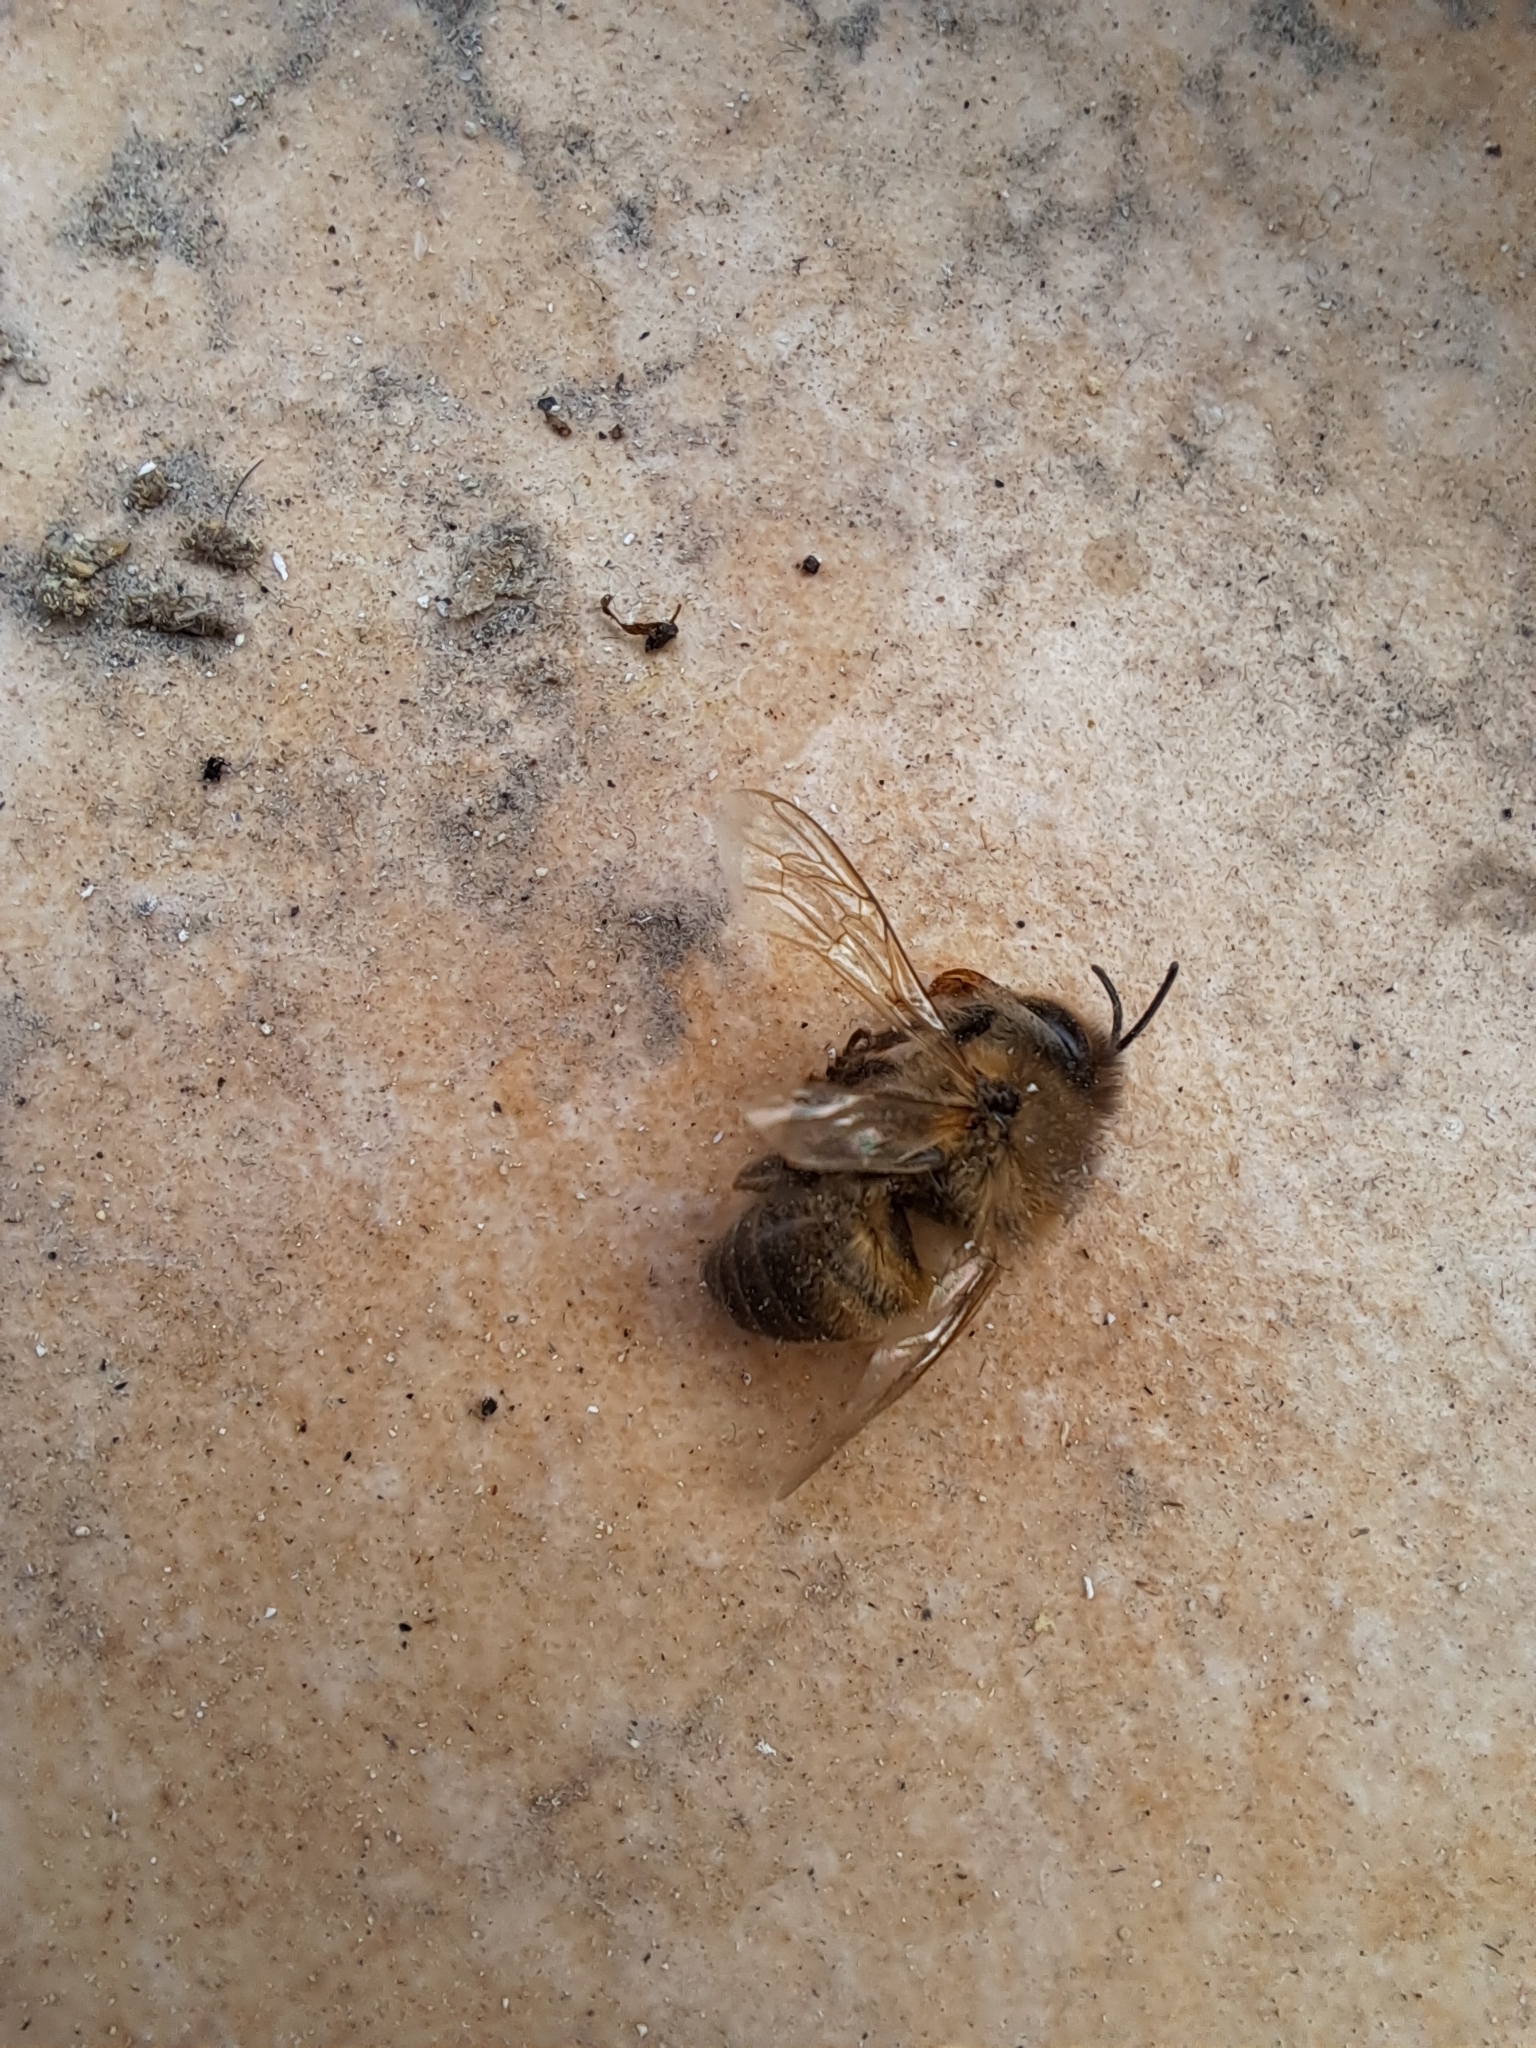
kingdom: Animalia
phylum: Arthropoda
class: Insecta
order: Hymenoptera
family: Apidae
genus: Apis
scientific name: Apis mellifera
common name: Honey bee
